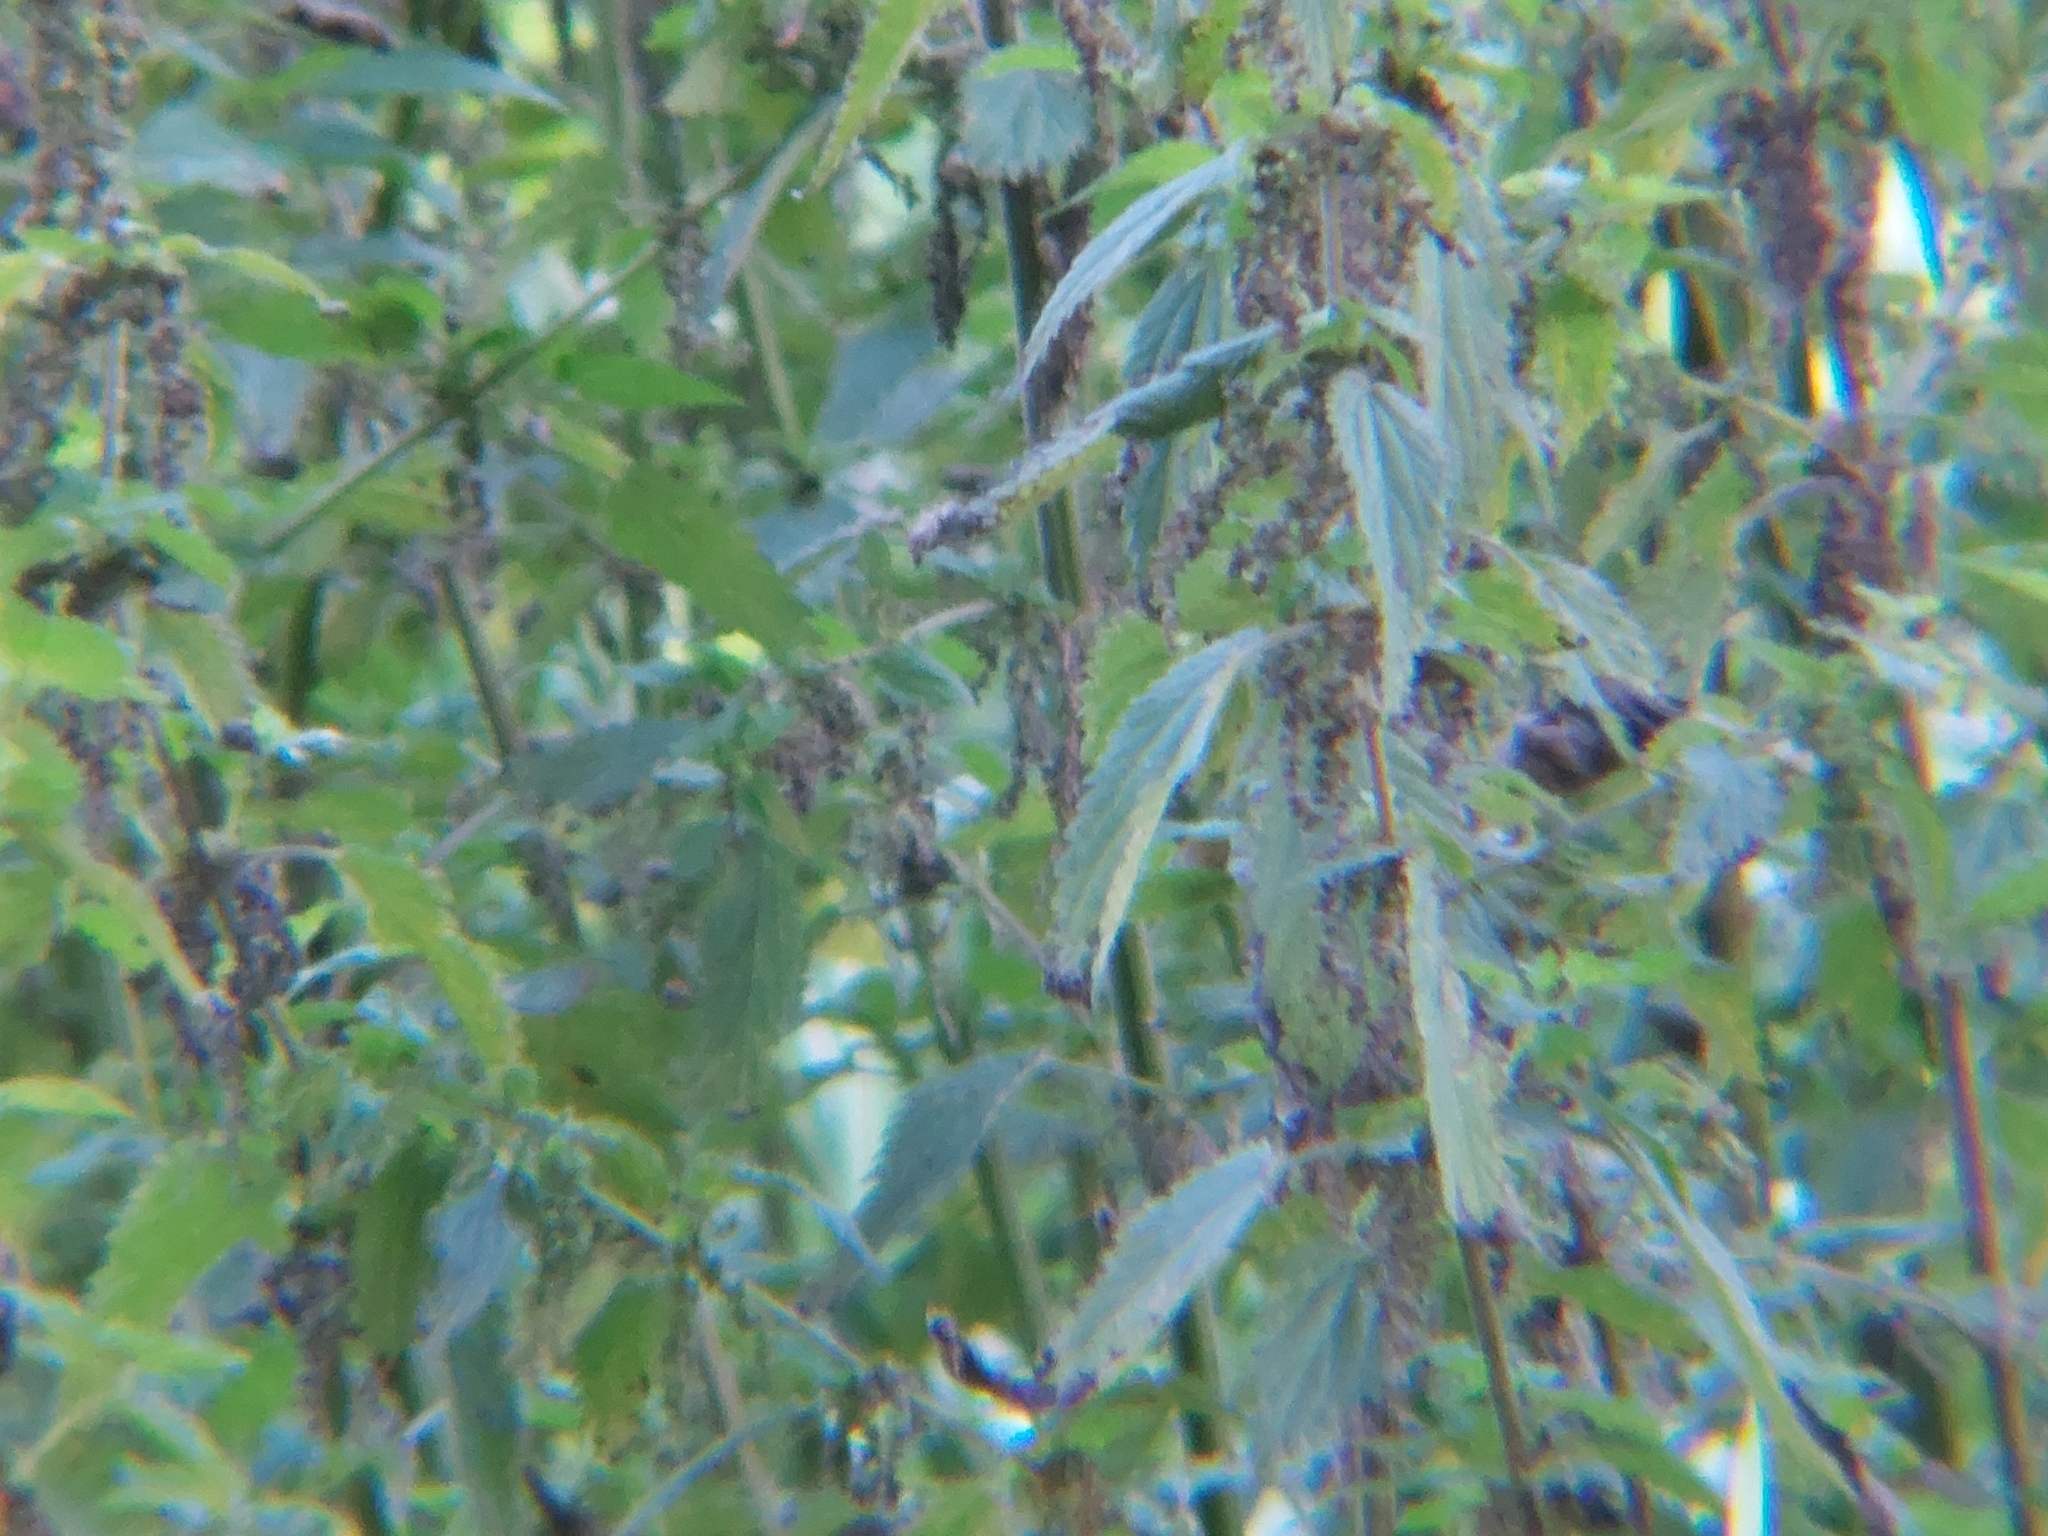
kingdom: Plantae
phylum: Tracheophyta
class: Magnoliopsida
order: Rosales
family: Urticaceae
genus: Urtica
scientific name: Urtica dioica
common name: Common nettle
